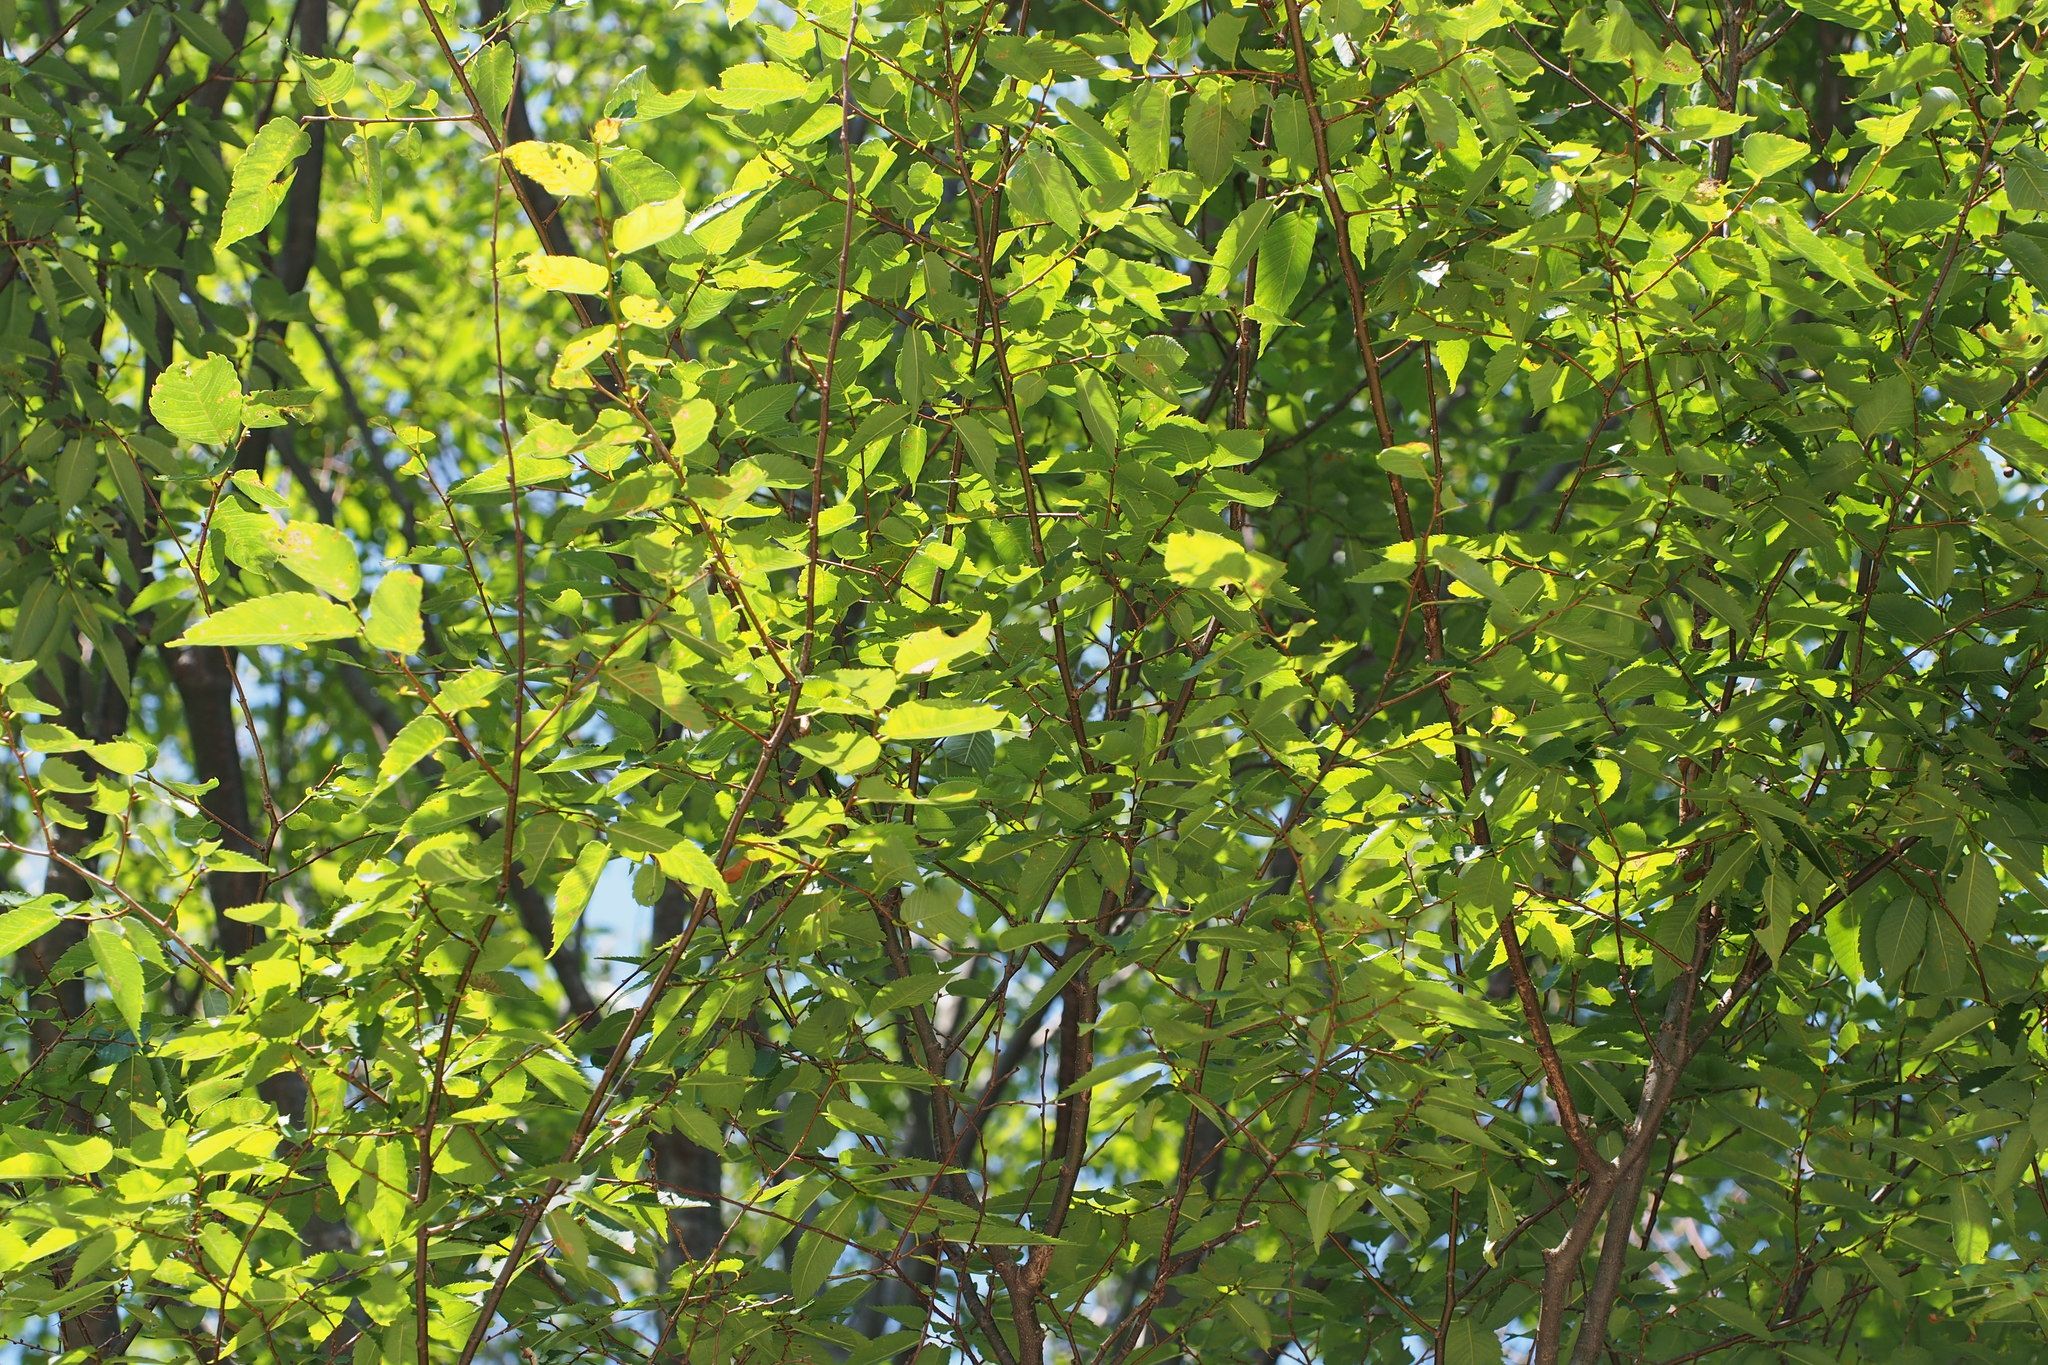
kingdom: Plantae
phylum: Tracheophyta
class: Magnoliopsida
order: Rosales
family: Ulmaceae
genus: Zelkova
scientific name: Zelkova serrata
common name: Japanese zelkova
